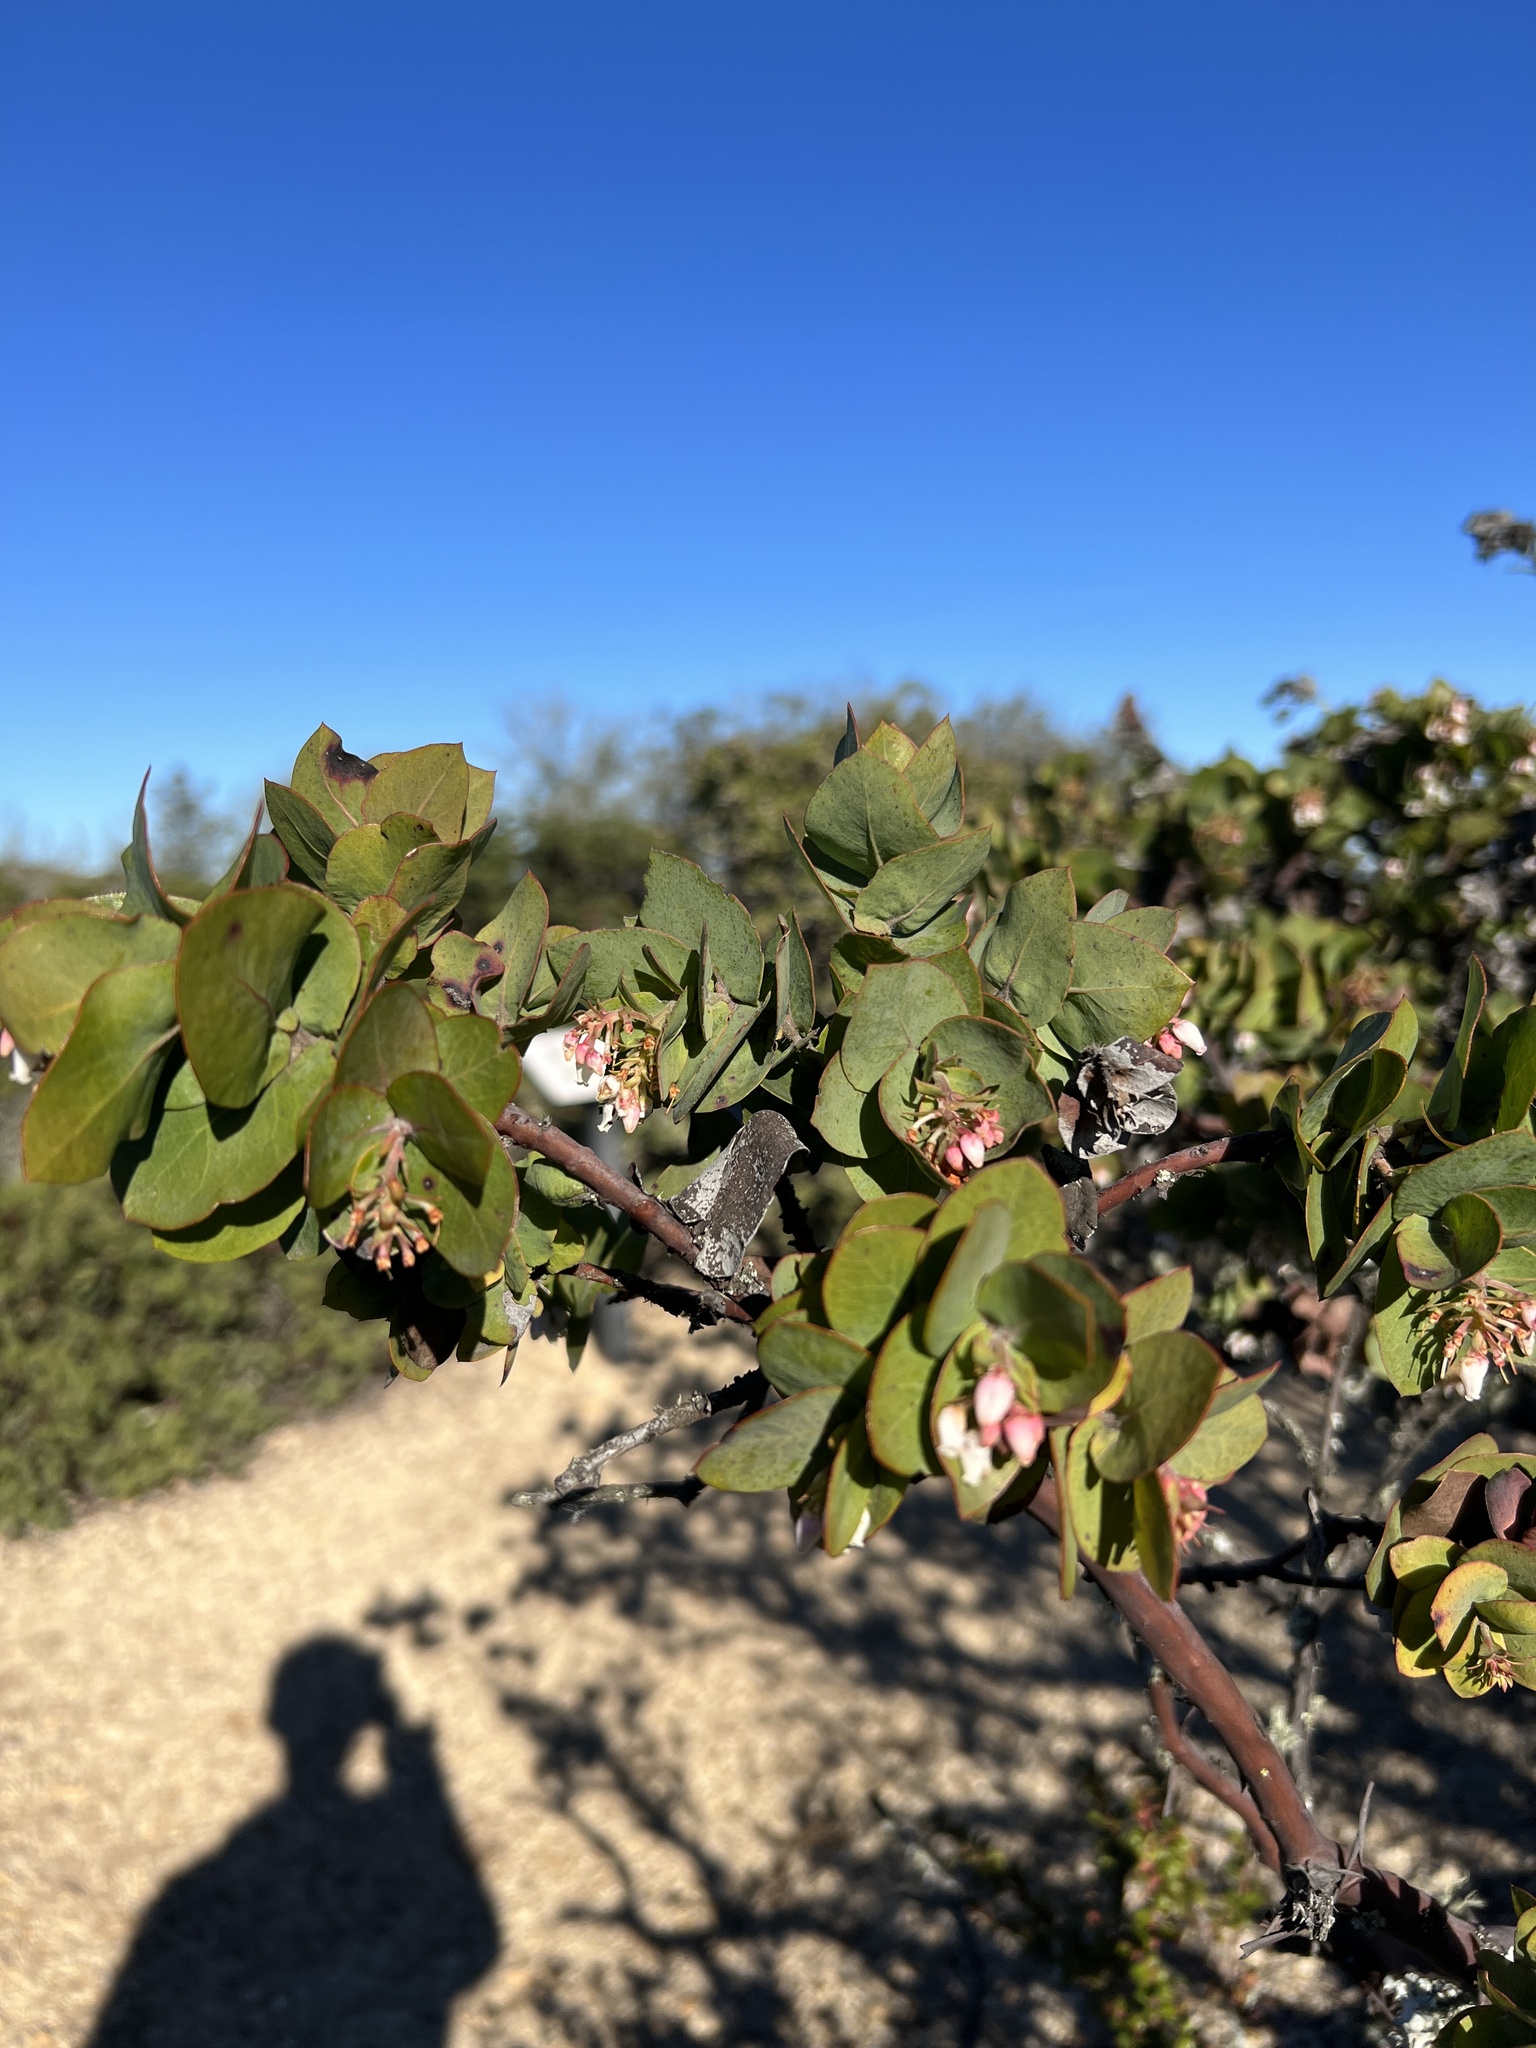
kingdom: Plantae
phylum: Tracheophyta
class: Magnoliopsida
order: Ericales
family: Ericaceae
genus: Arctostaphylos
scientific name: Arctostaphylos pallida
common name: Pallid manzanita
